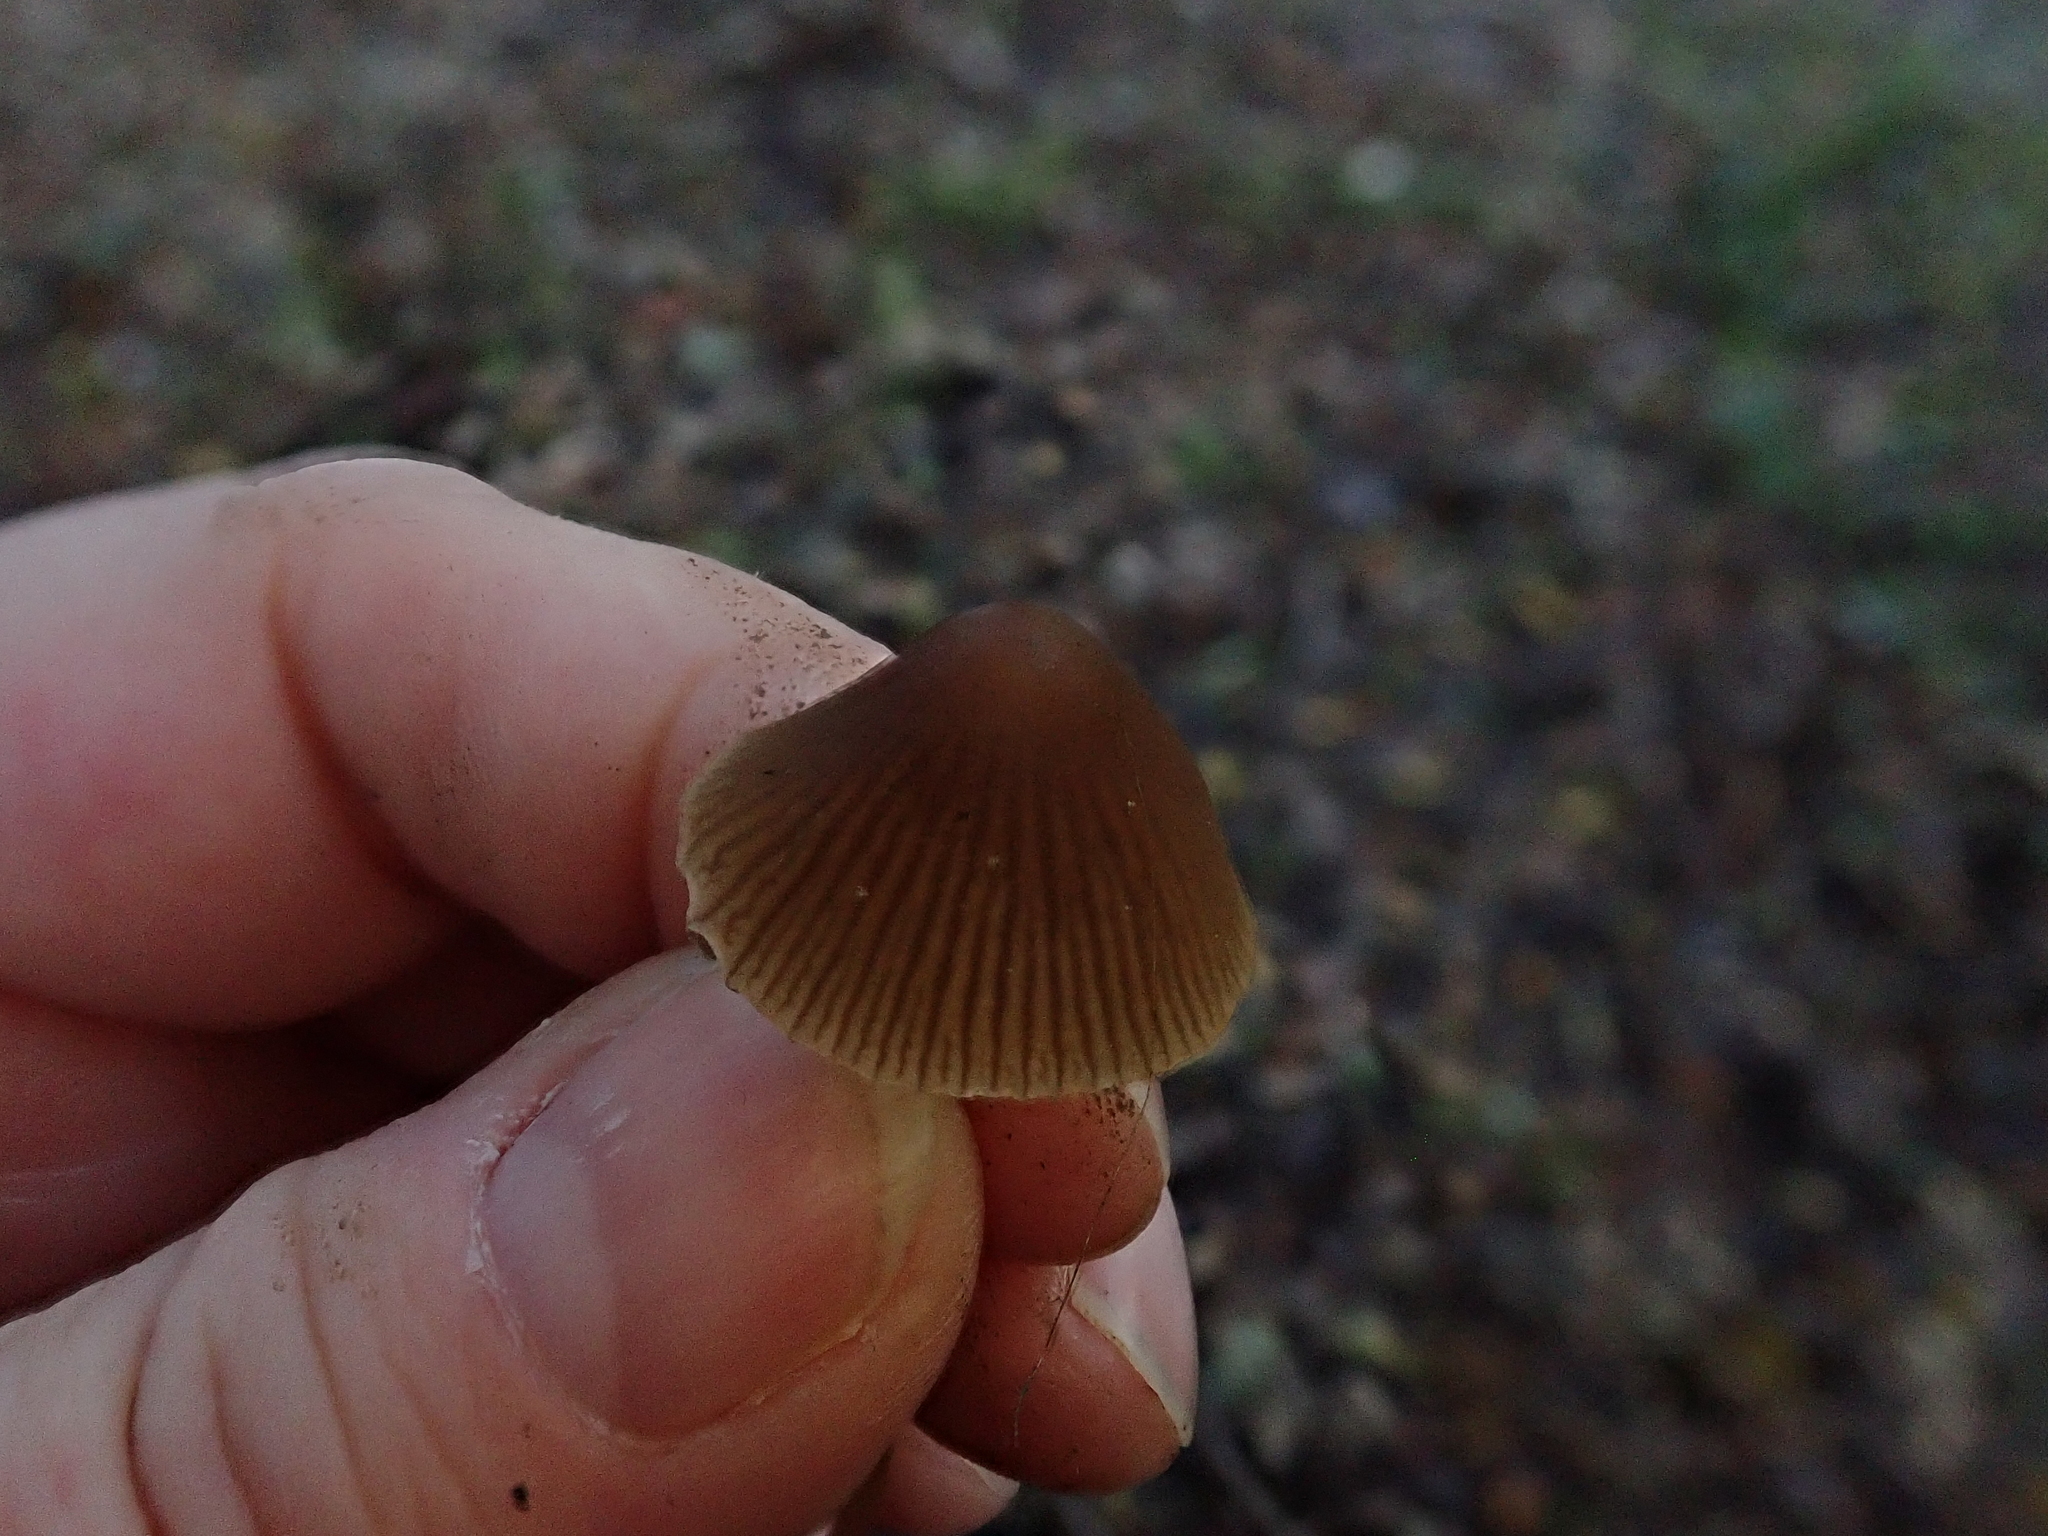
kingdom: Fungi
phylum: Basidiomycota
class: Agaricomycetes
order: Agaricales
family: Psathyrellaceae
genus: Parasola
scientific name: Parasola conopilea
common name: Conical brittlestem
